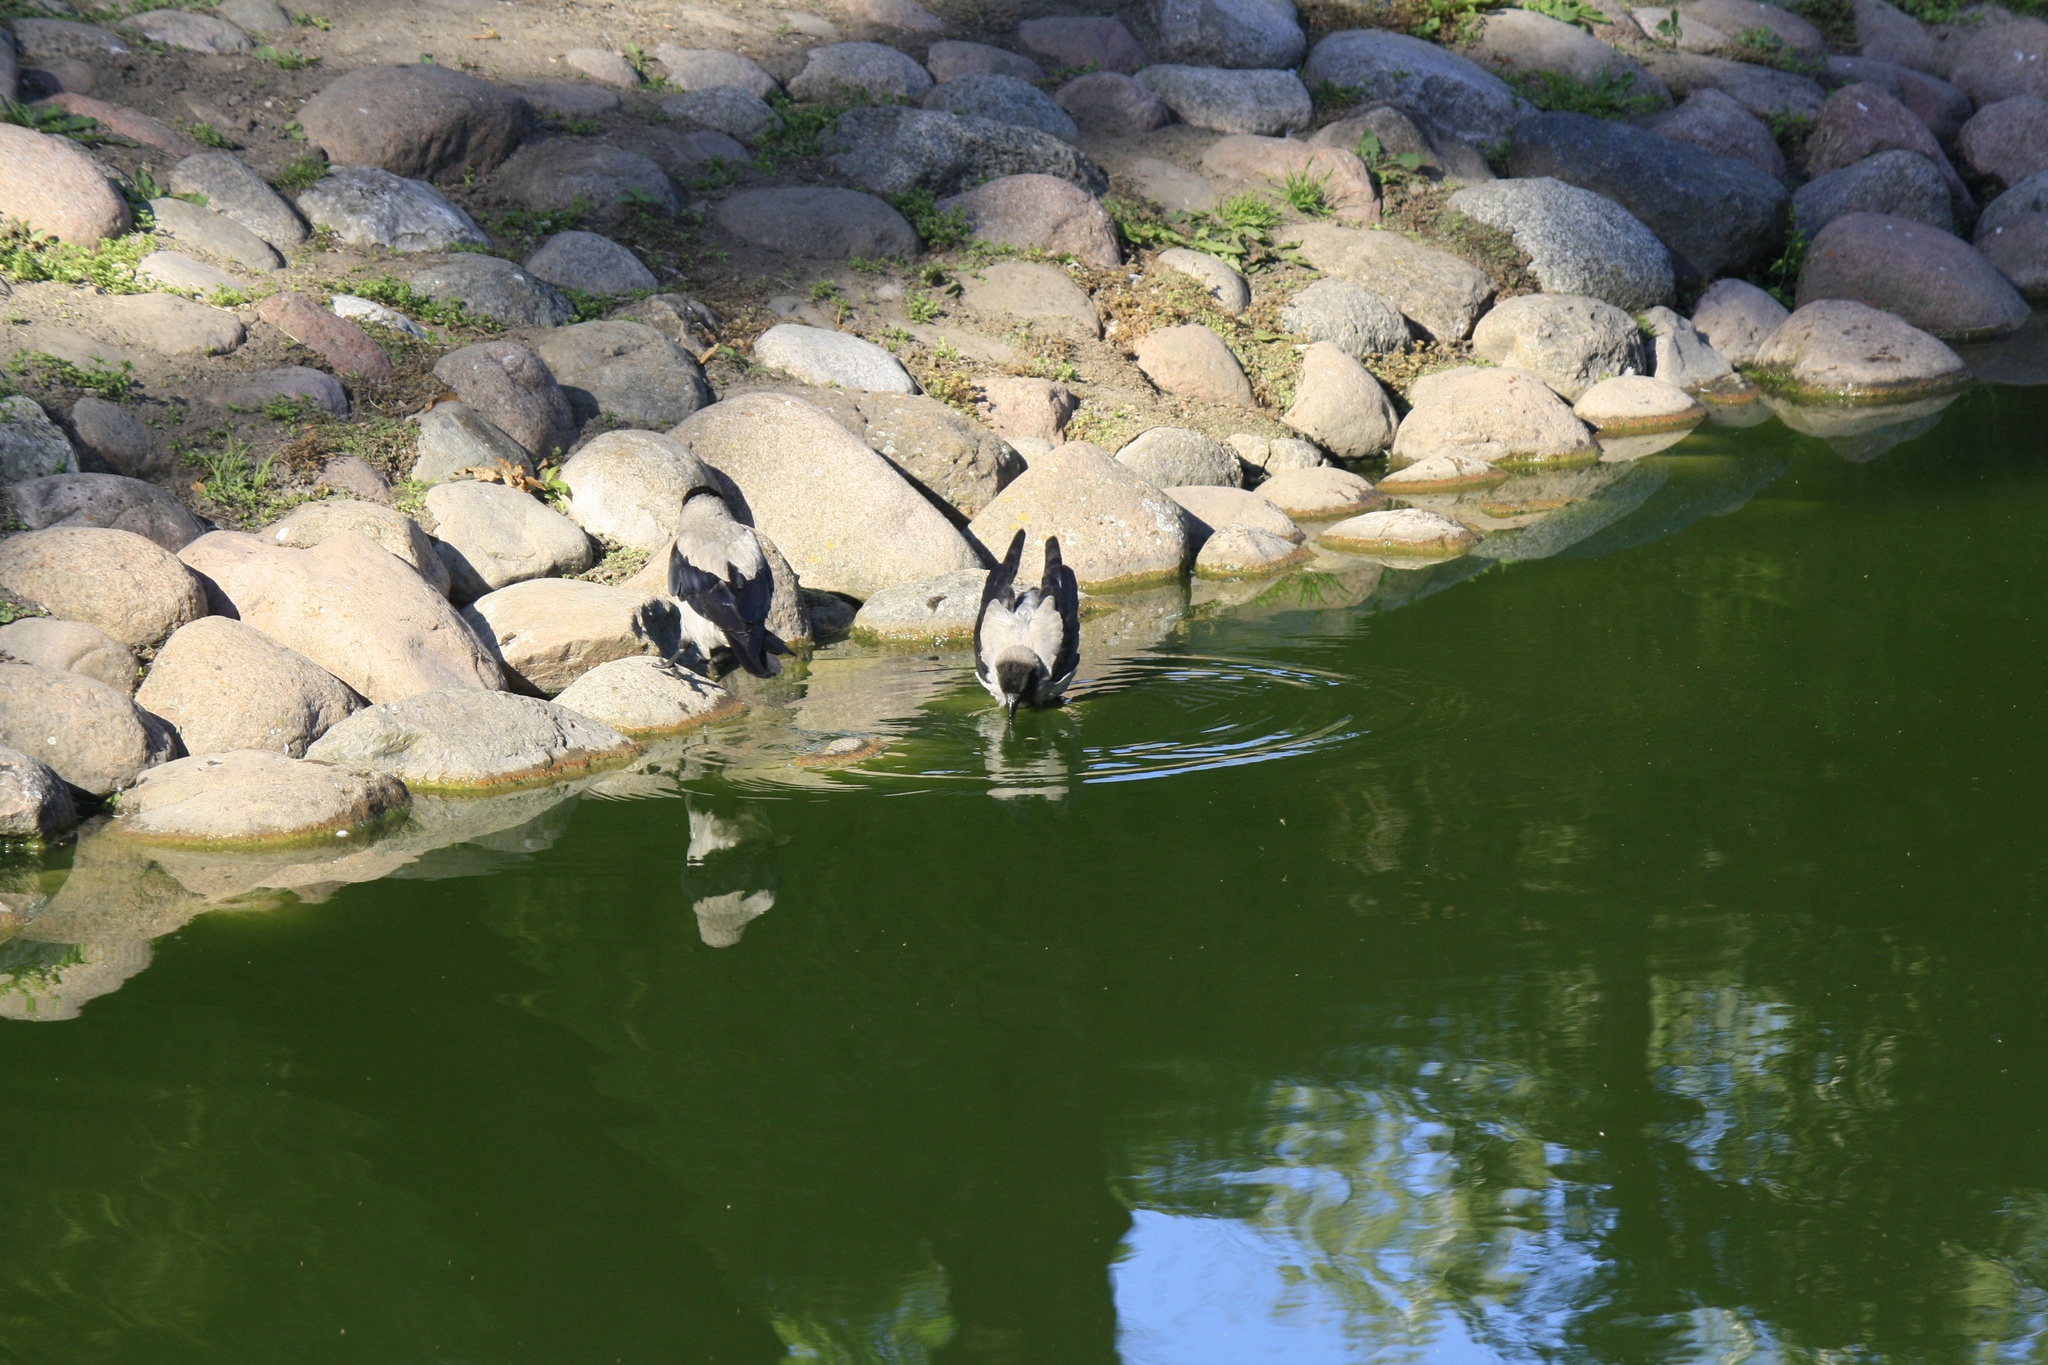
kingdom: Animalia
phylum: Chordata
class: Aves
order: Passeriformes
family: Corvidae
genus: Corvus
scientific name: Corvus cornix
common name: Hooded crow
